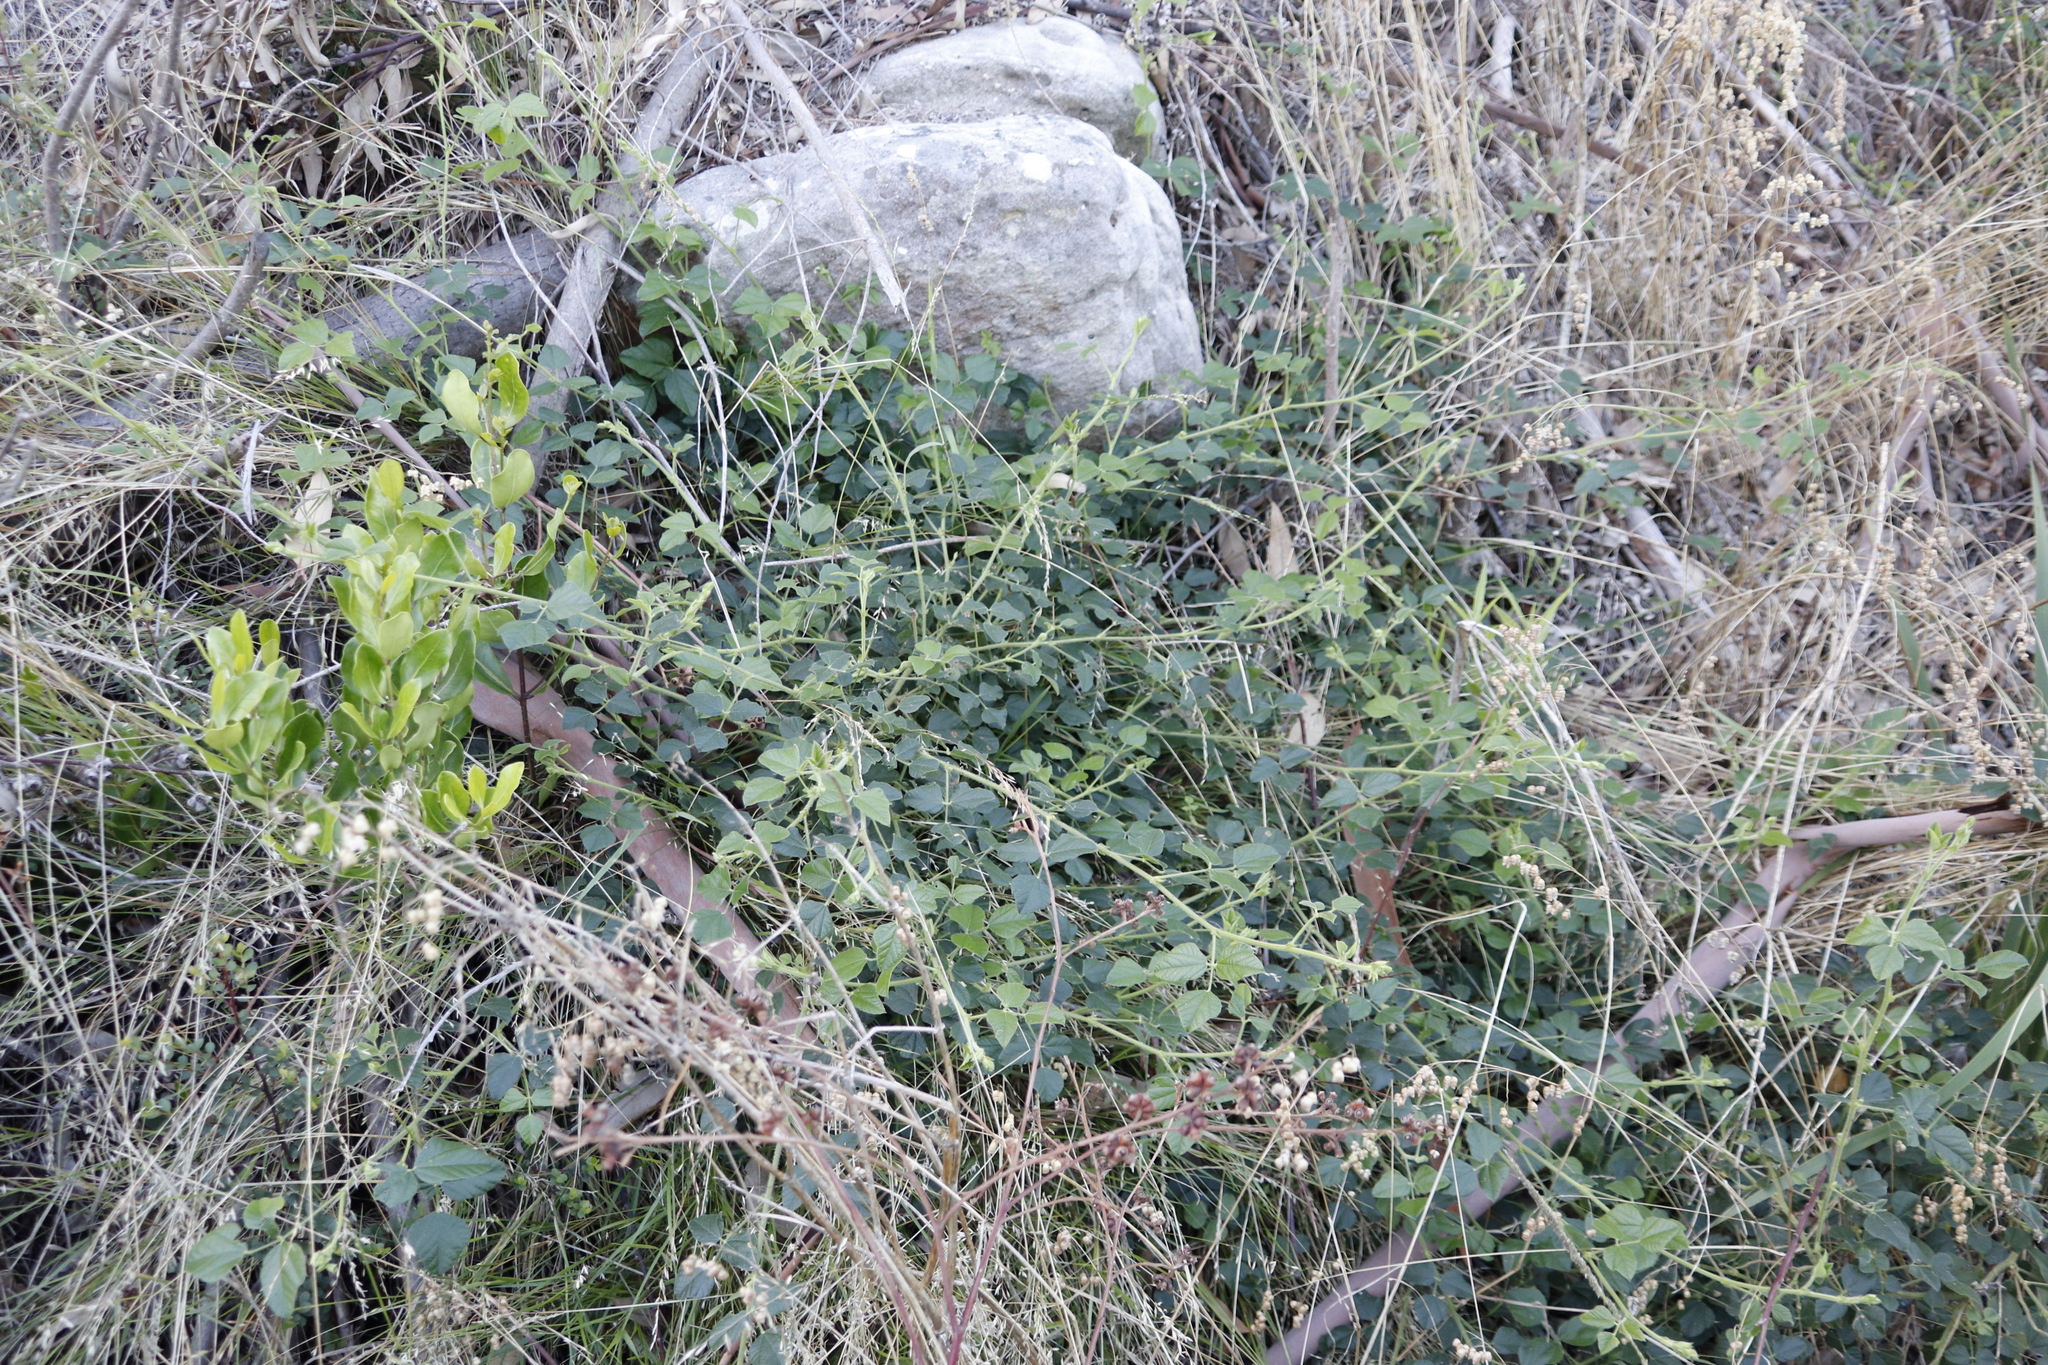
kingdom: Plantae
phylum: Tracheophyta
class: Magnoliopsida
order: Fabales
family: Fabaceae
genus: Bolusafra
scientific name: Bolusafra bituminosa
